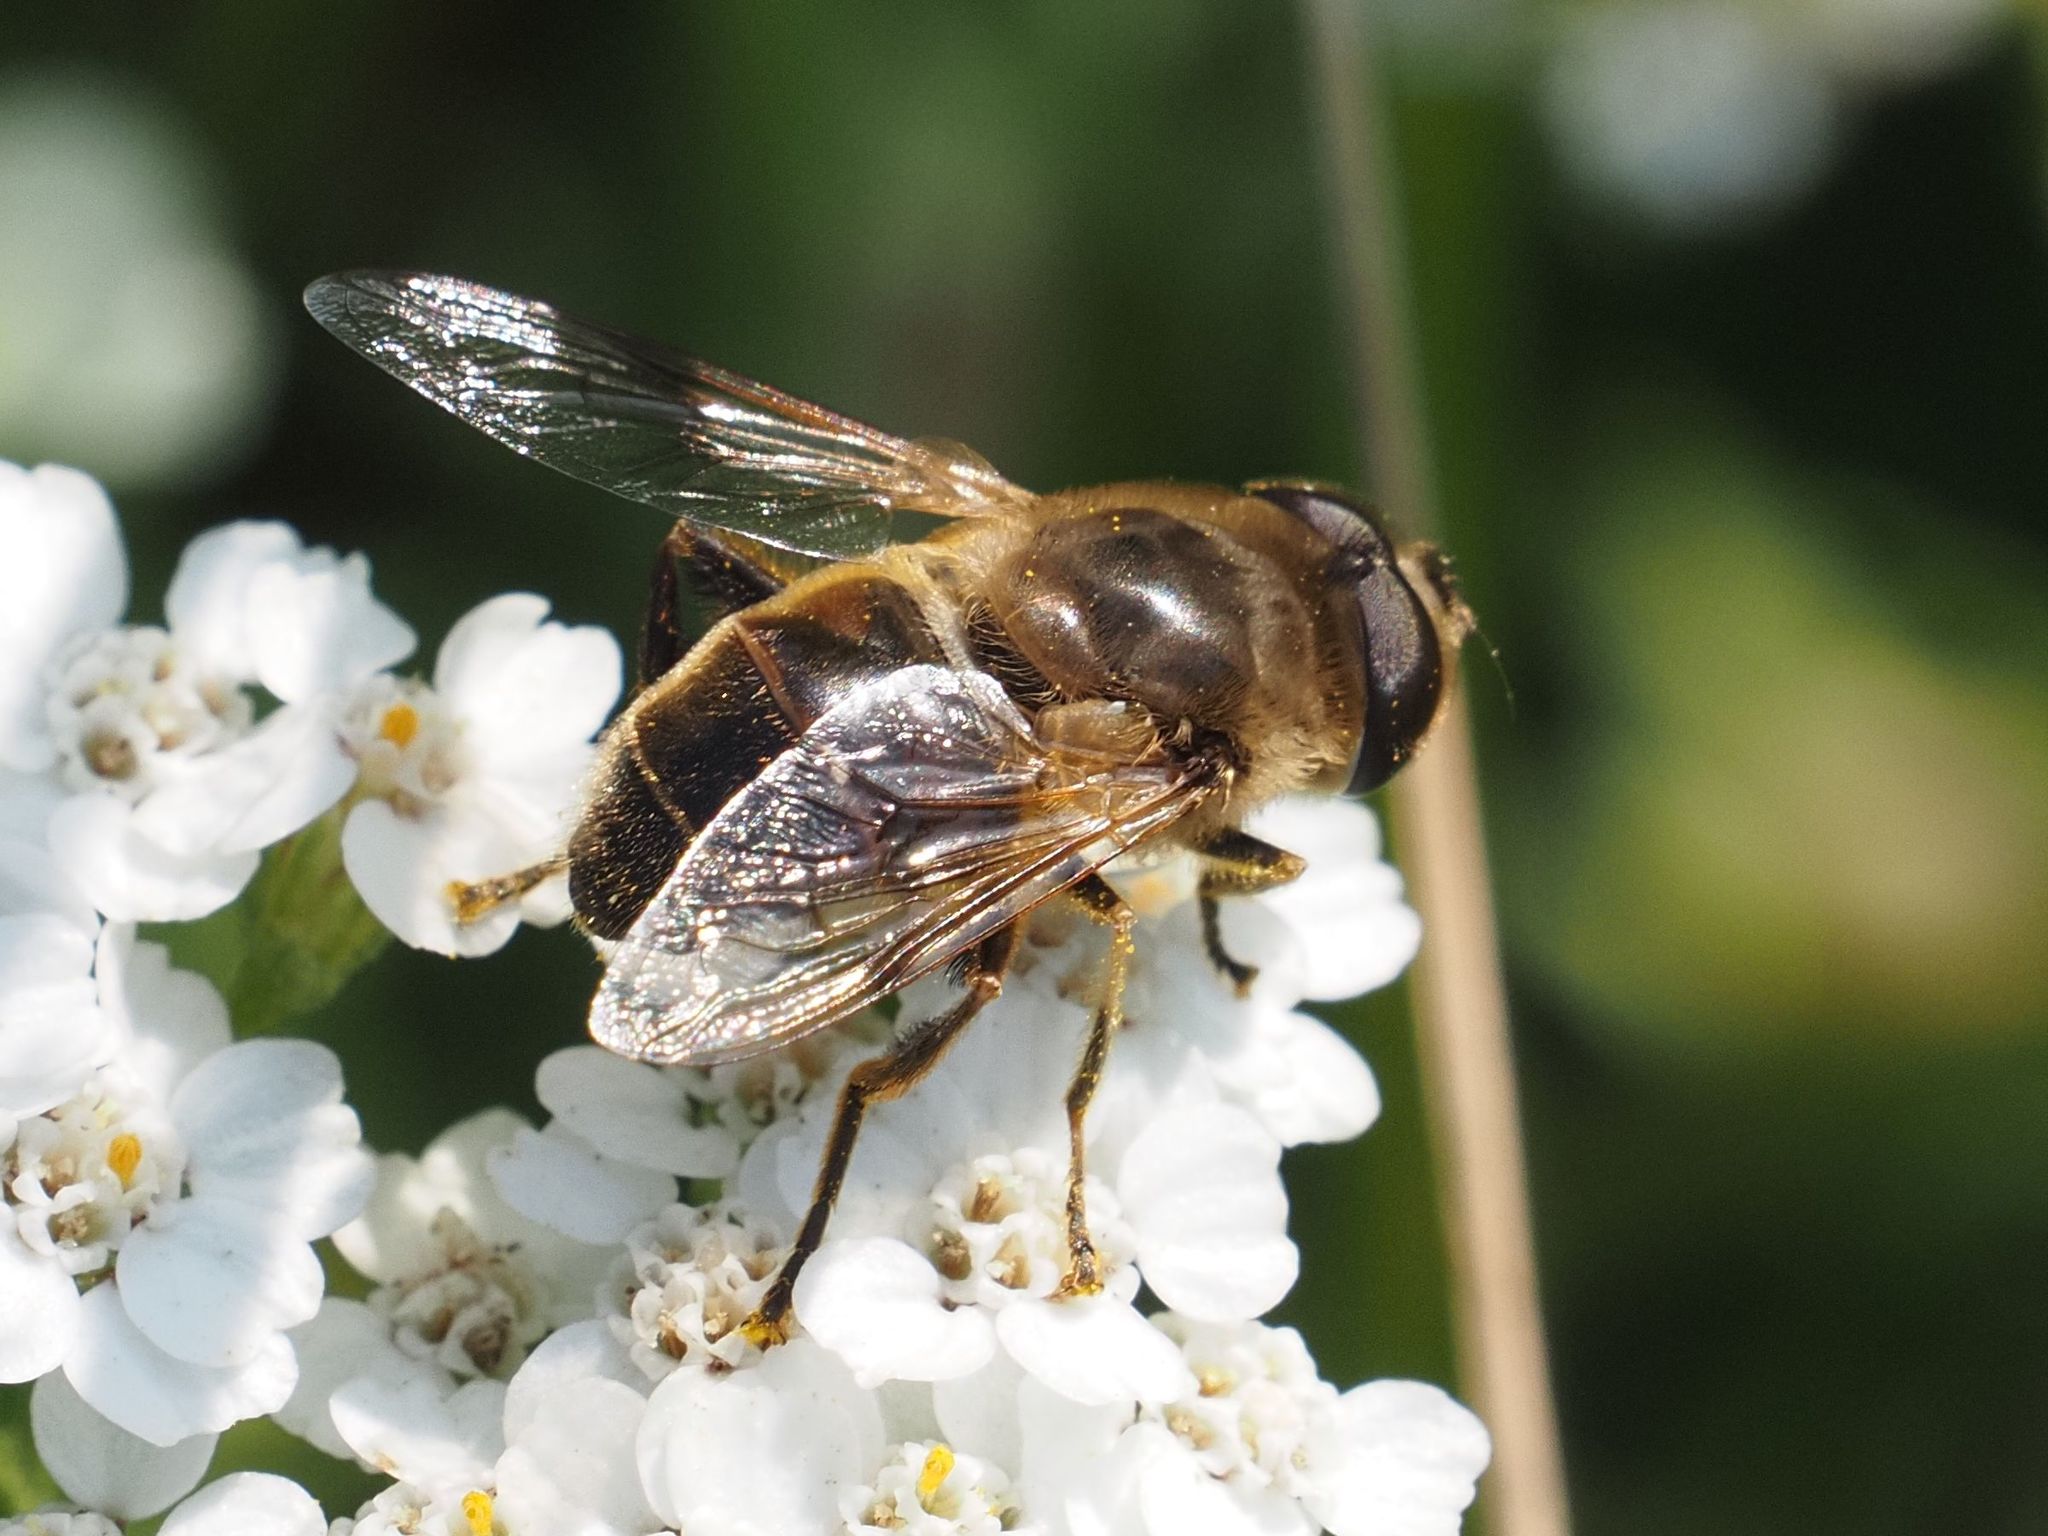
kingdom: Animalia
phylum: Arthropoda
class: Insecta
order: Diptera
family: Syrphidae
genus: Eristalis
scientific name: Eristalis tenax
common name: Drone fly
